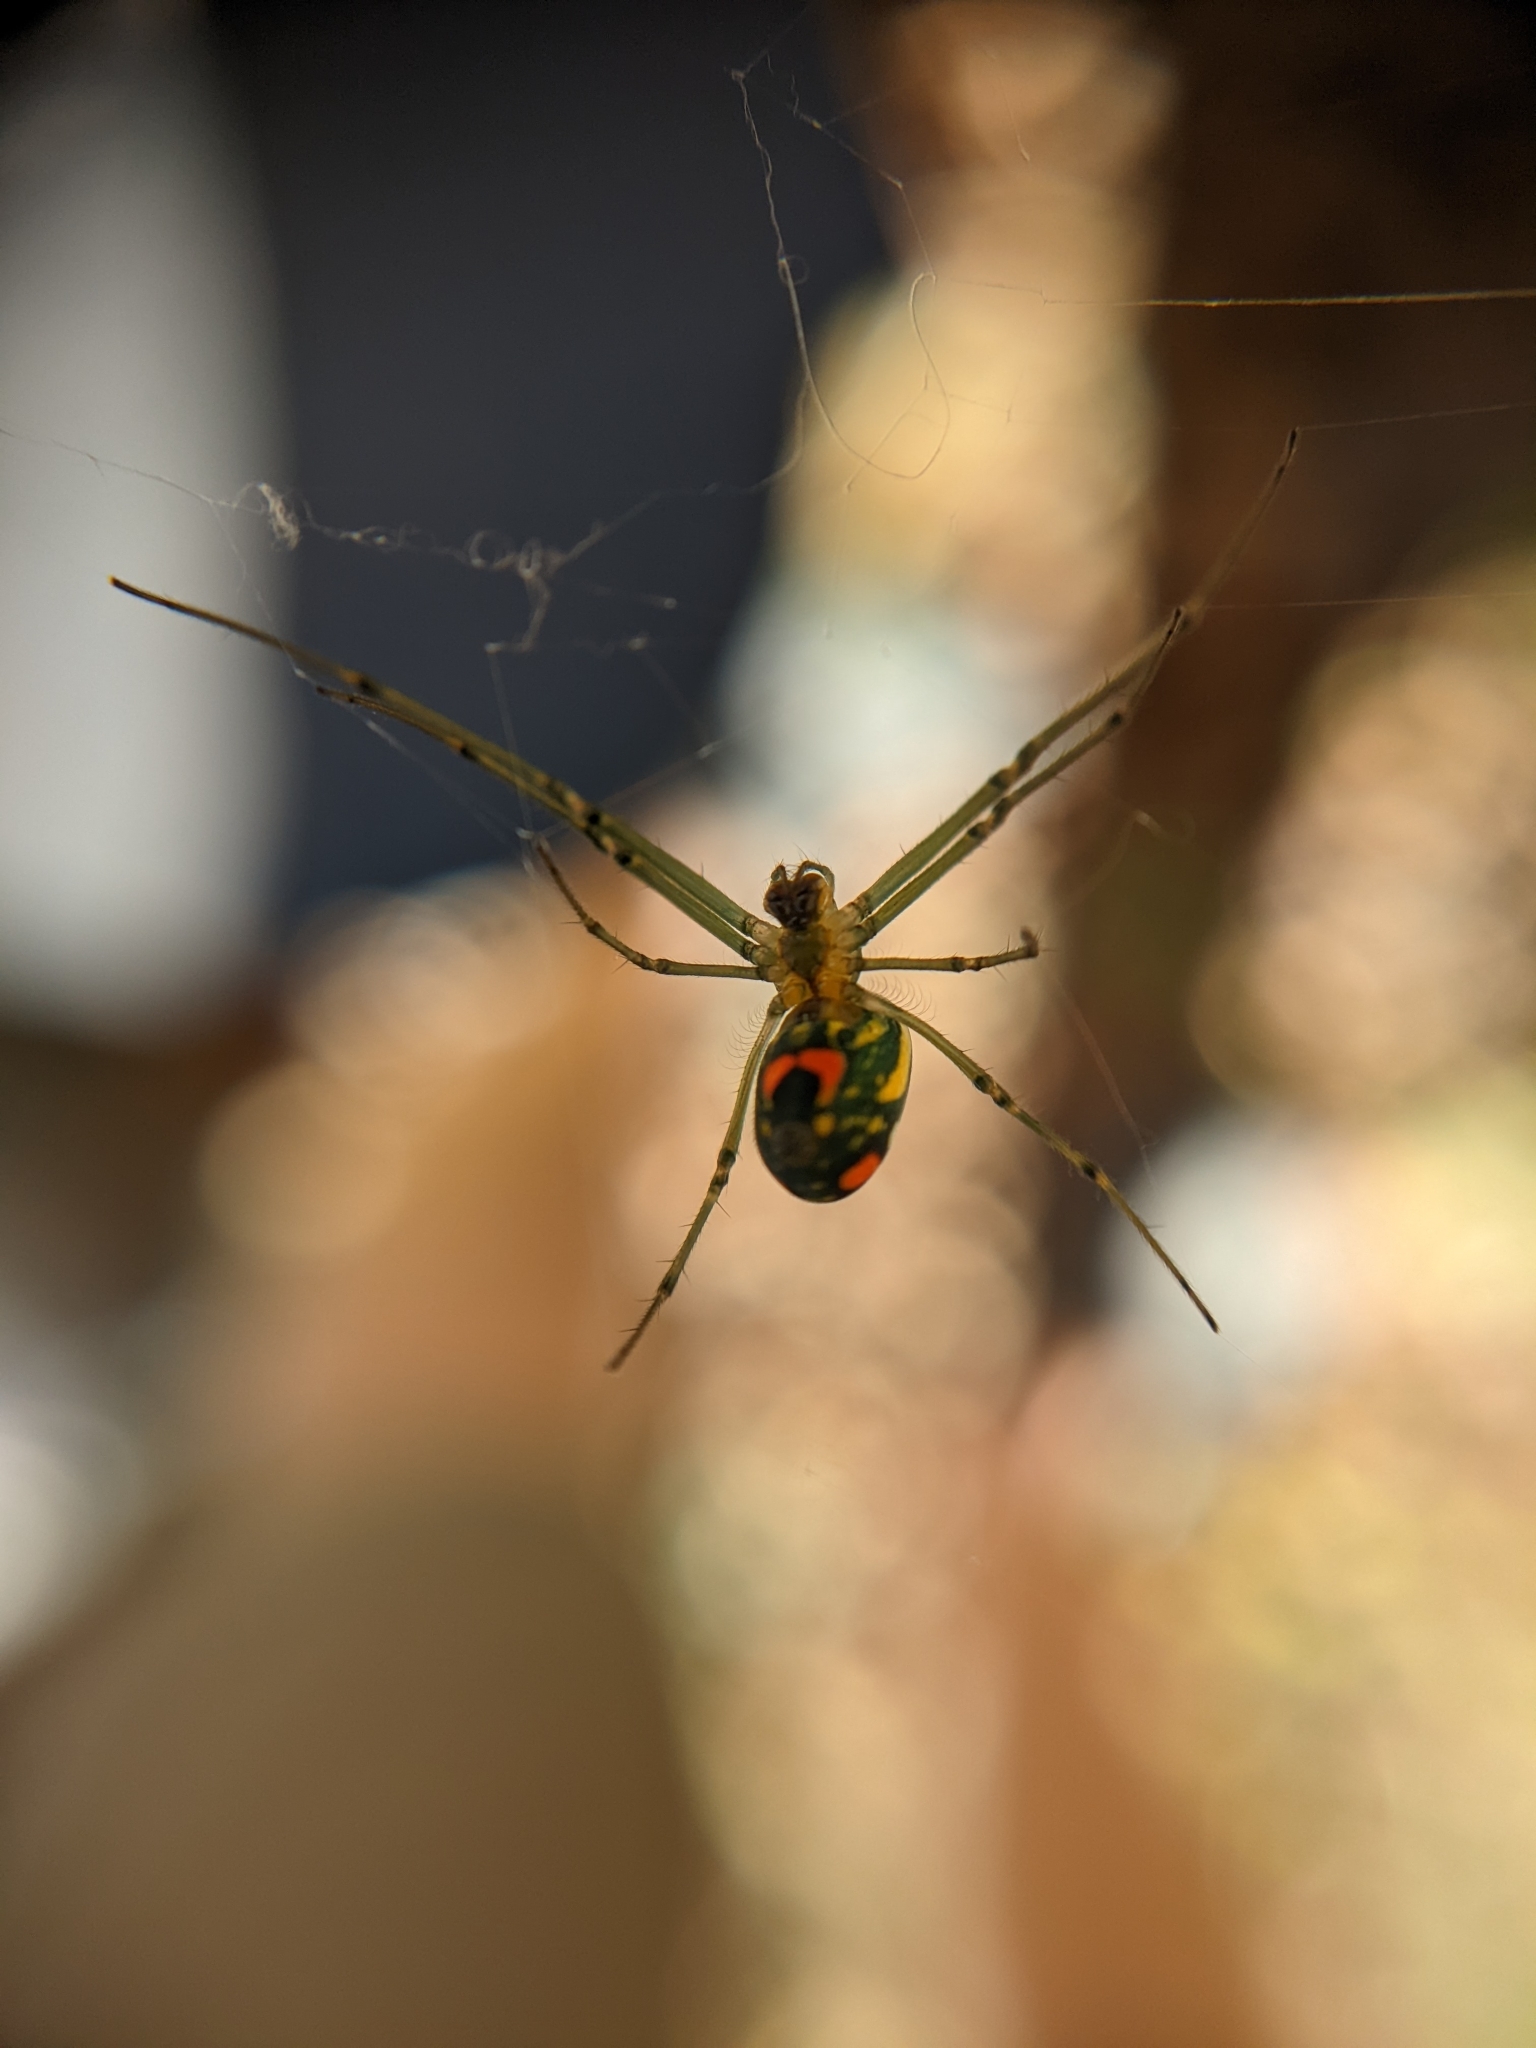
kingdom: Animalia
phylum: Arthropoda
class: Arachnida
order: Araneae
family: Tetragnathidae
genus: Leucauge
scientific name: Leucauge argyrobapta
